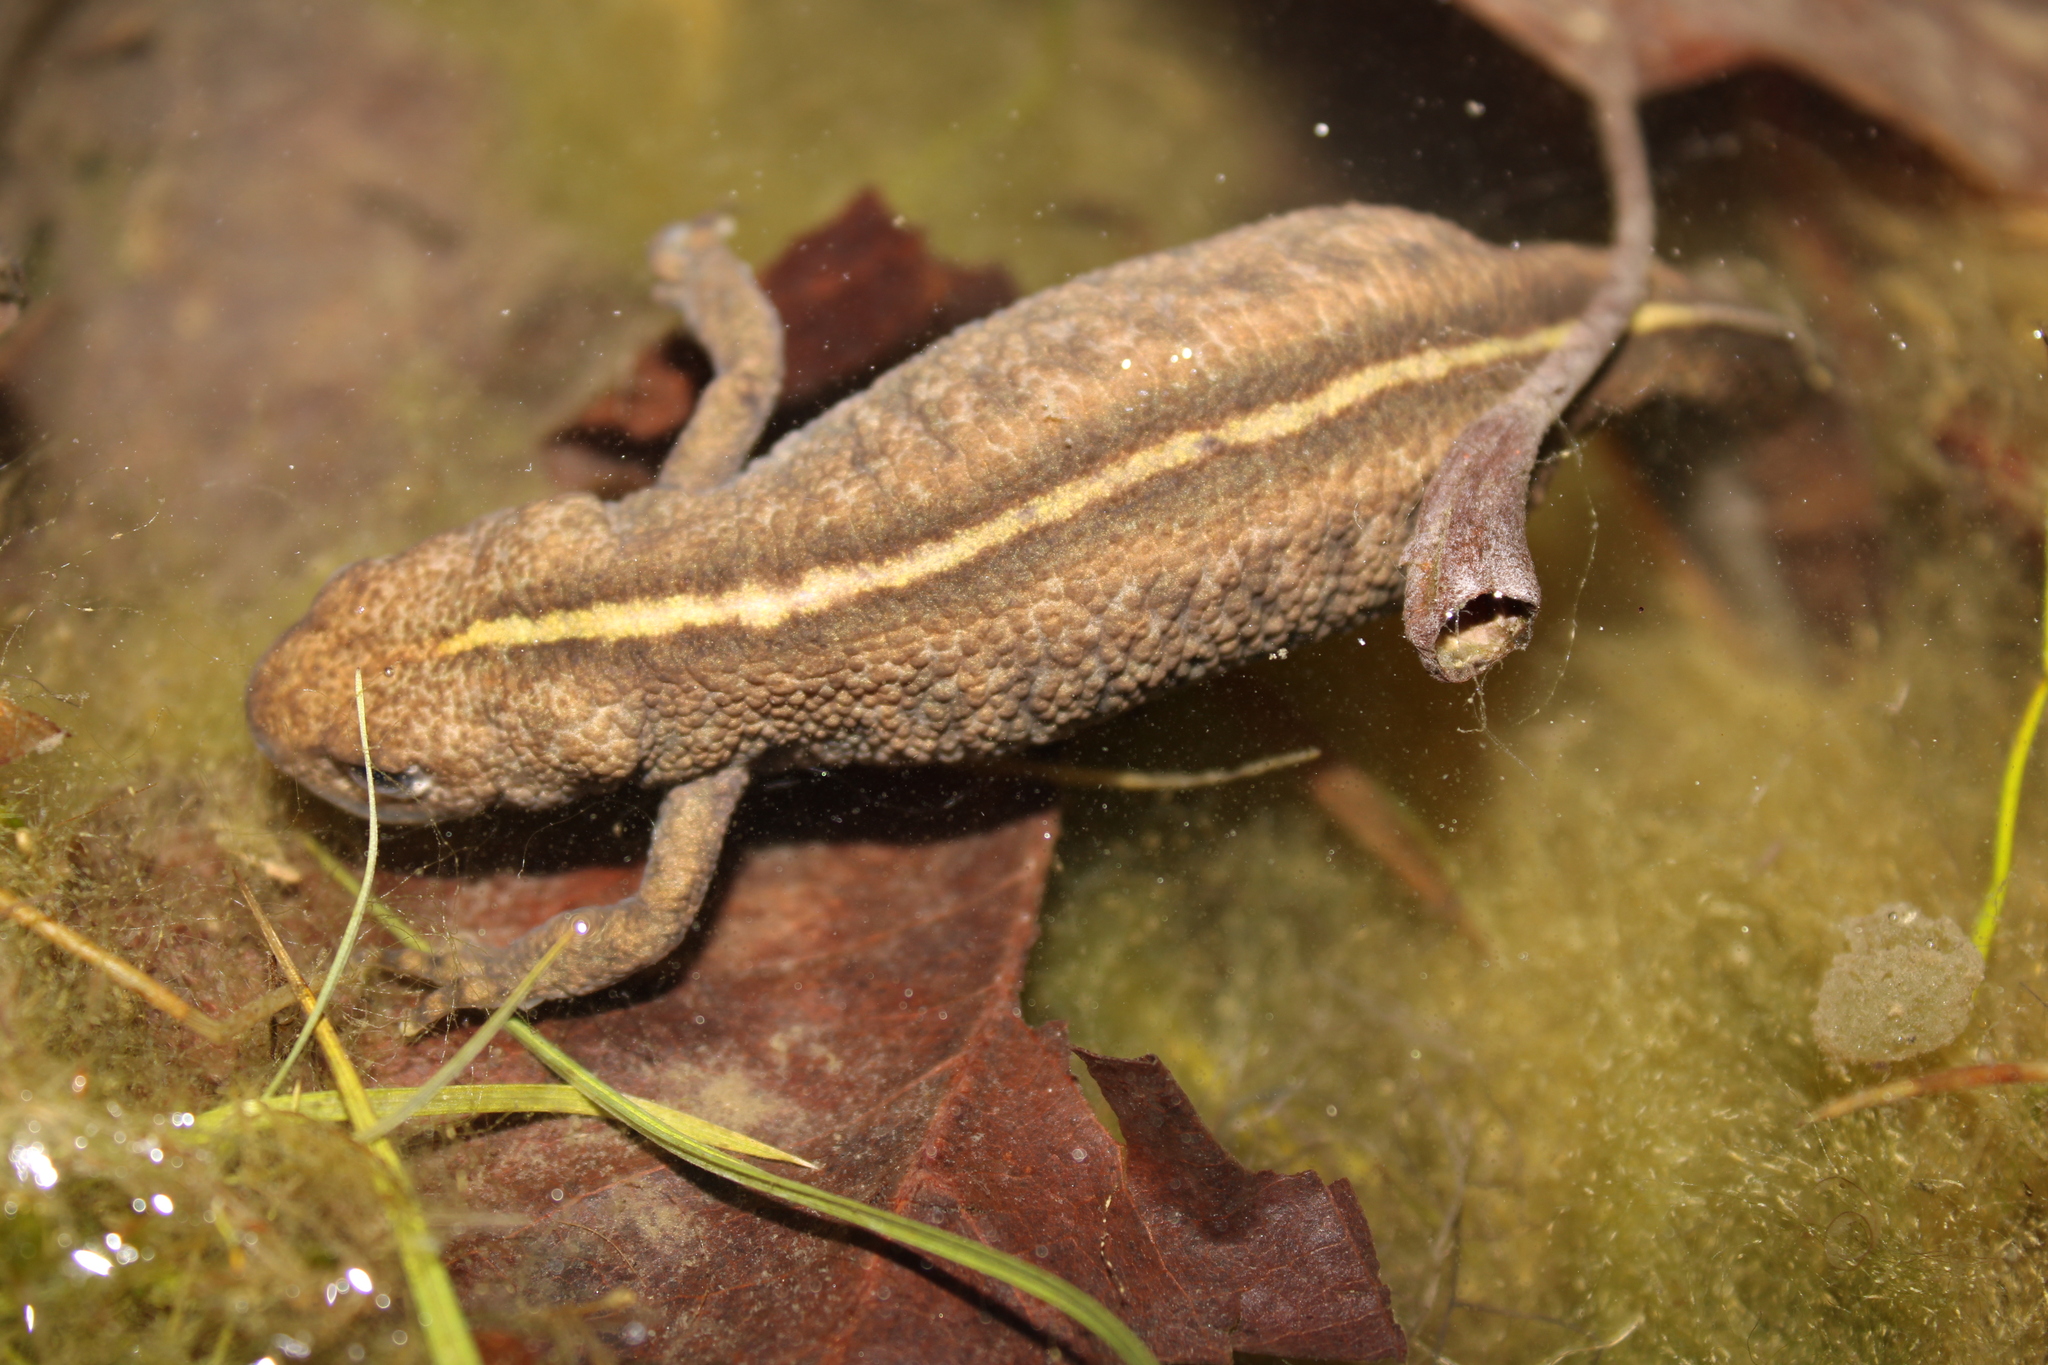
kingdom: Animalia
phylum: Chordata
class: Amphibia
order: Caudata
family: Salamandridae
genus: Triturus
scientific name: Triturus carnifex
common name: Italian crested newt
